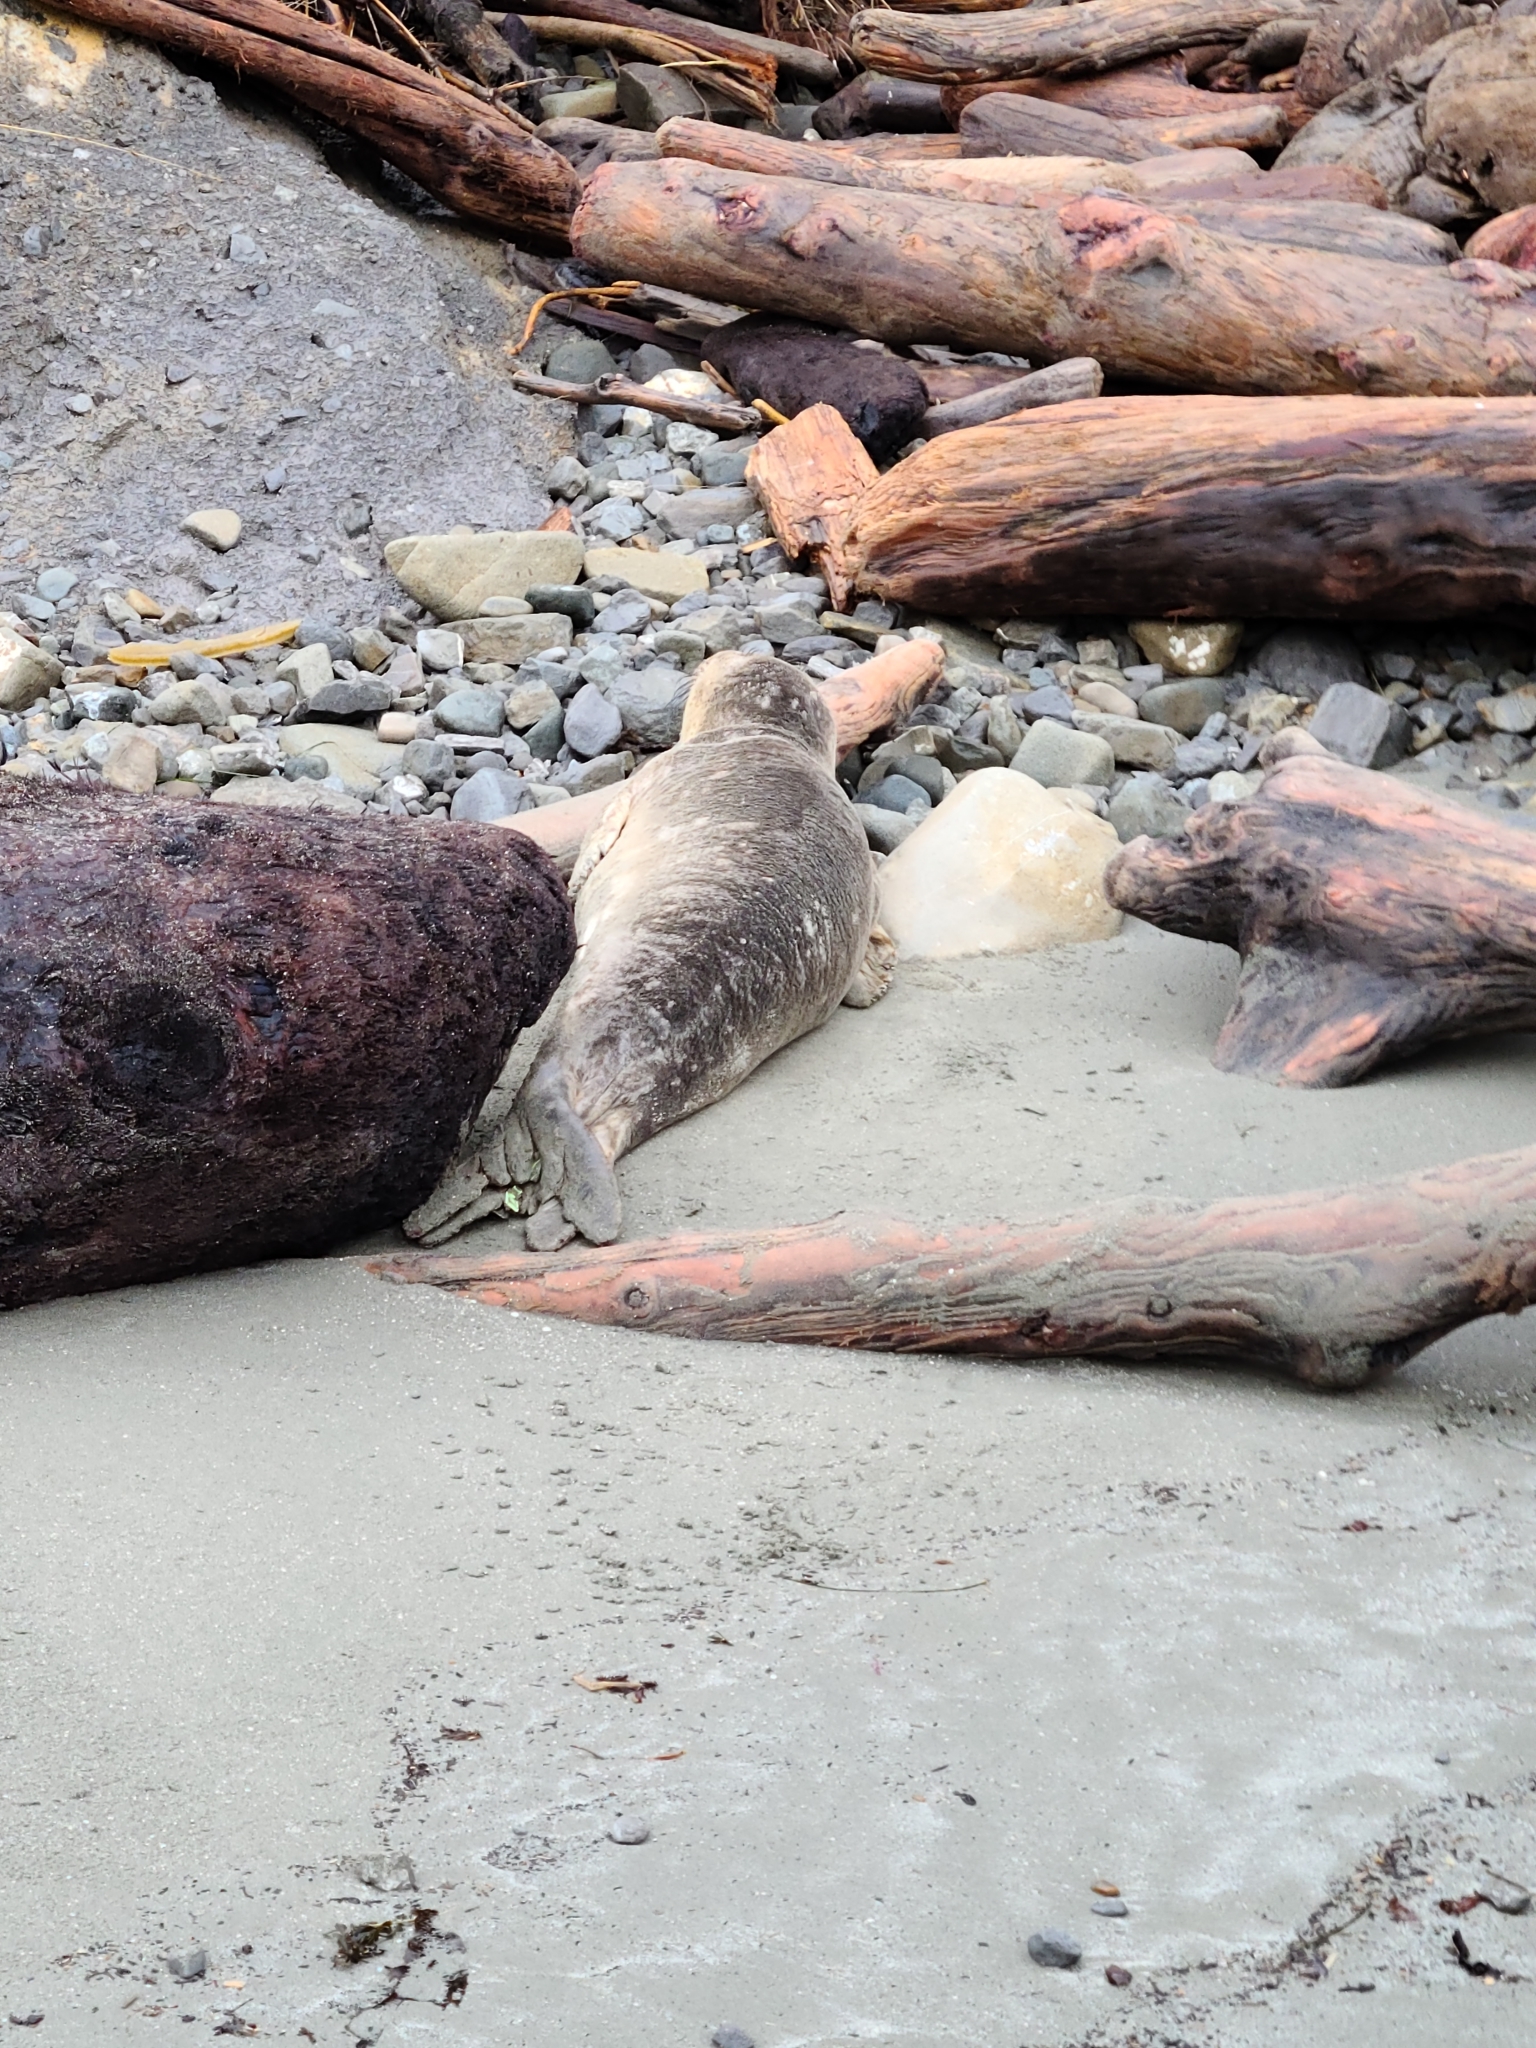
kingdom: Animalia
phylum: Chordata
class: Mammalia
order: Carnivora
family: Phocidae
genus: Mirounga
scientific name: Mirounga angustirostris
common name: Northern elephant seal
